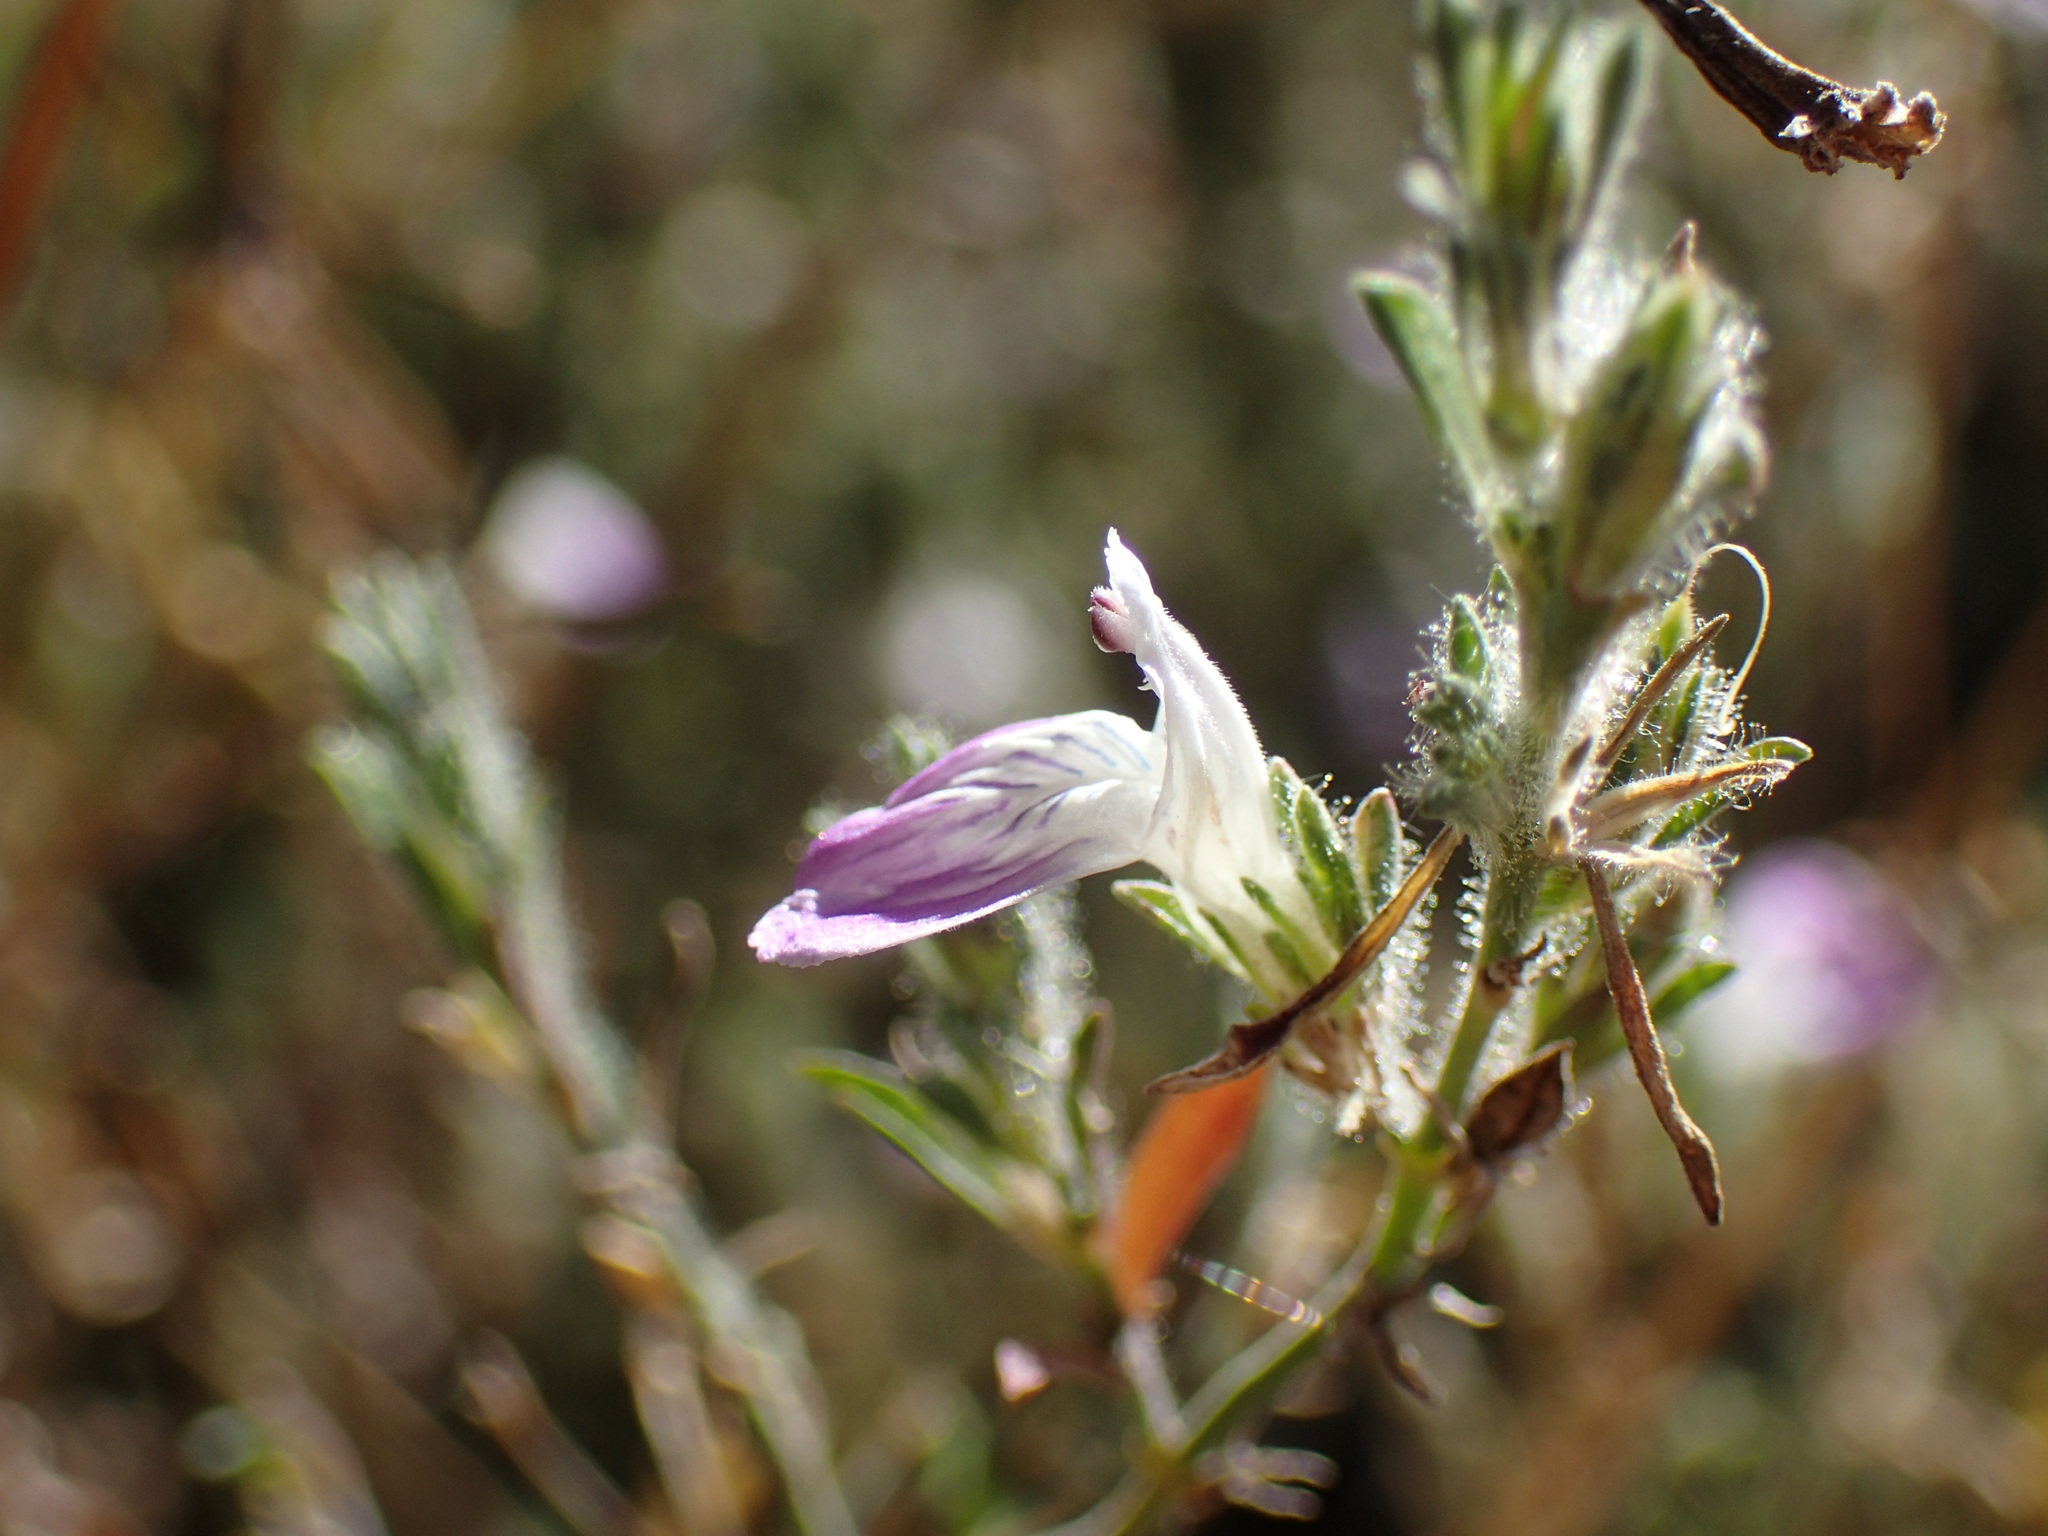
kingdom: Plantae
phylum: Tracheophyta
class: Magnoliopsida
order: Lamiales
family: Acanthaceae
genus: Pogonospermum
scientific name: Pogonospermum
